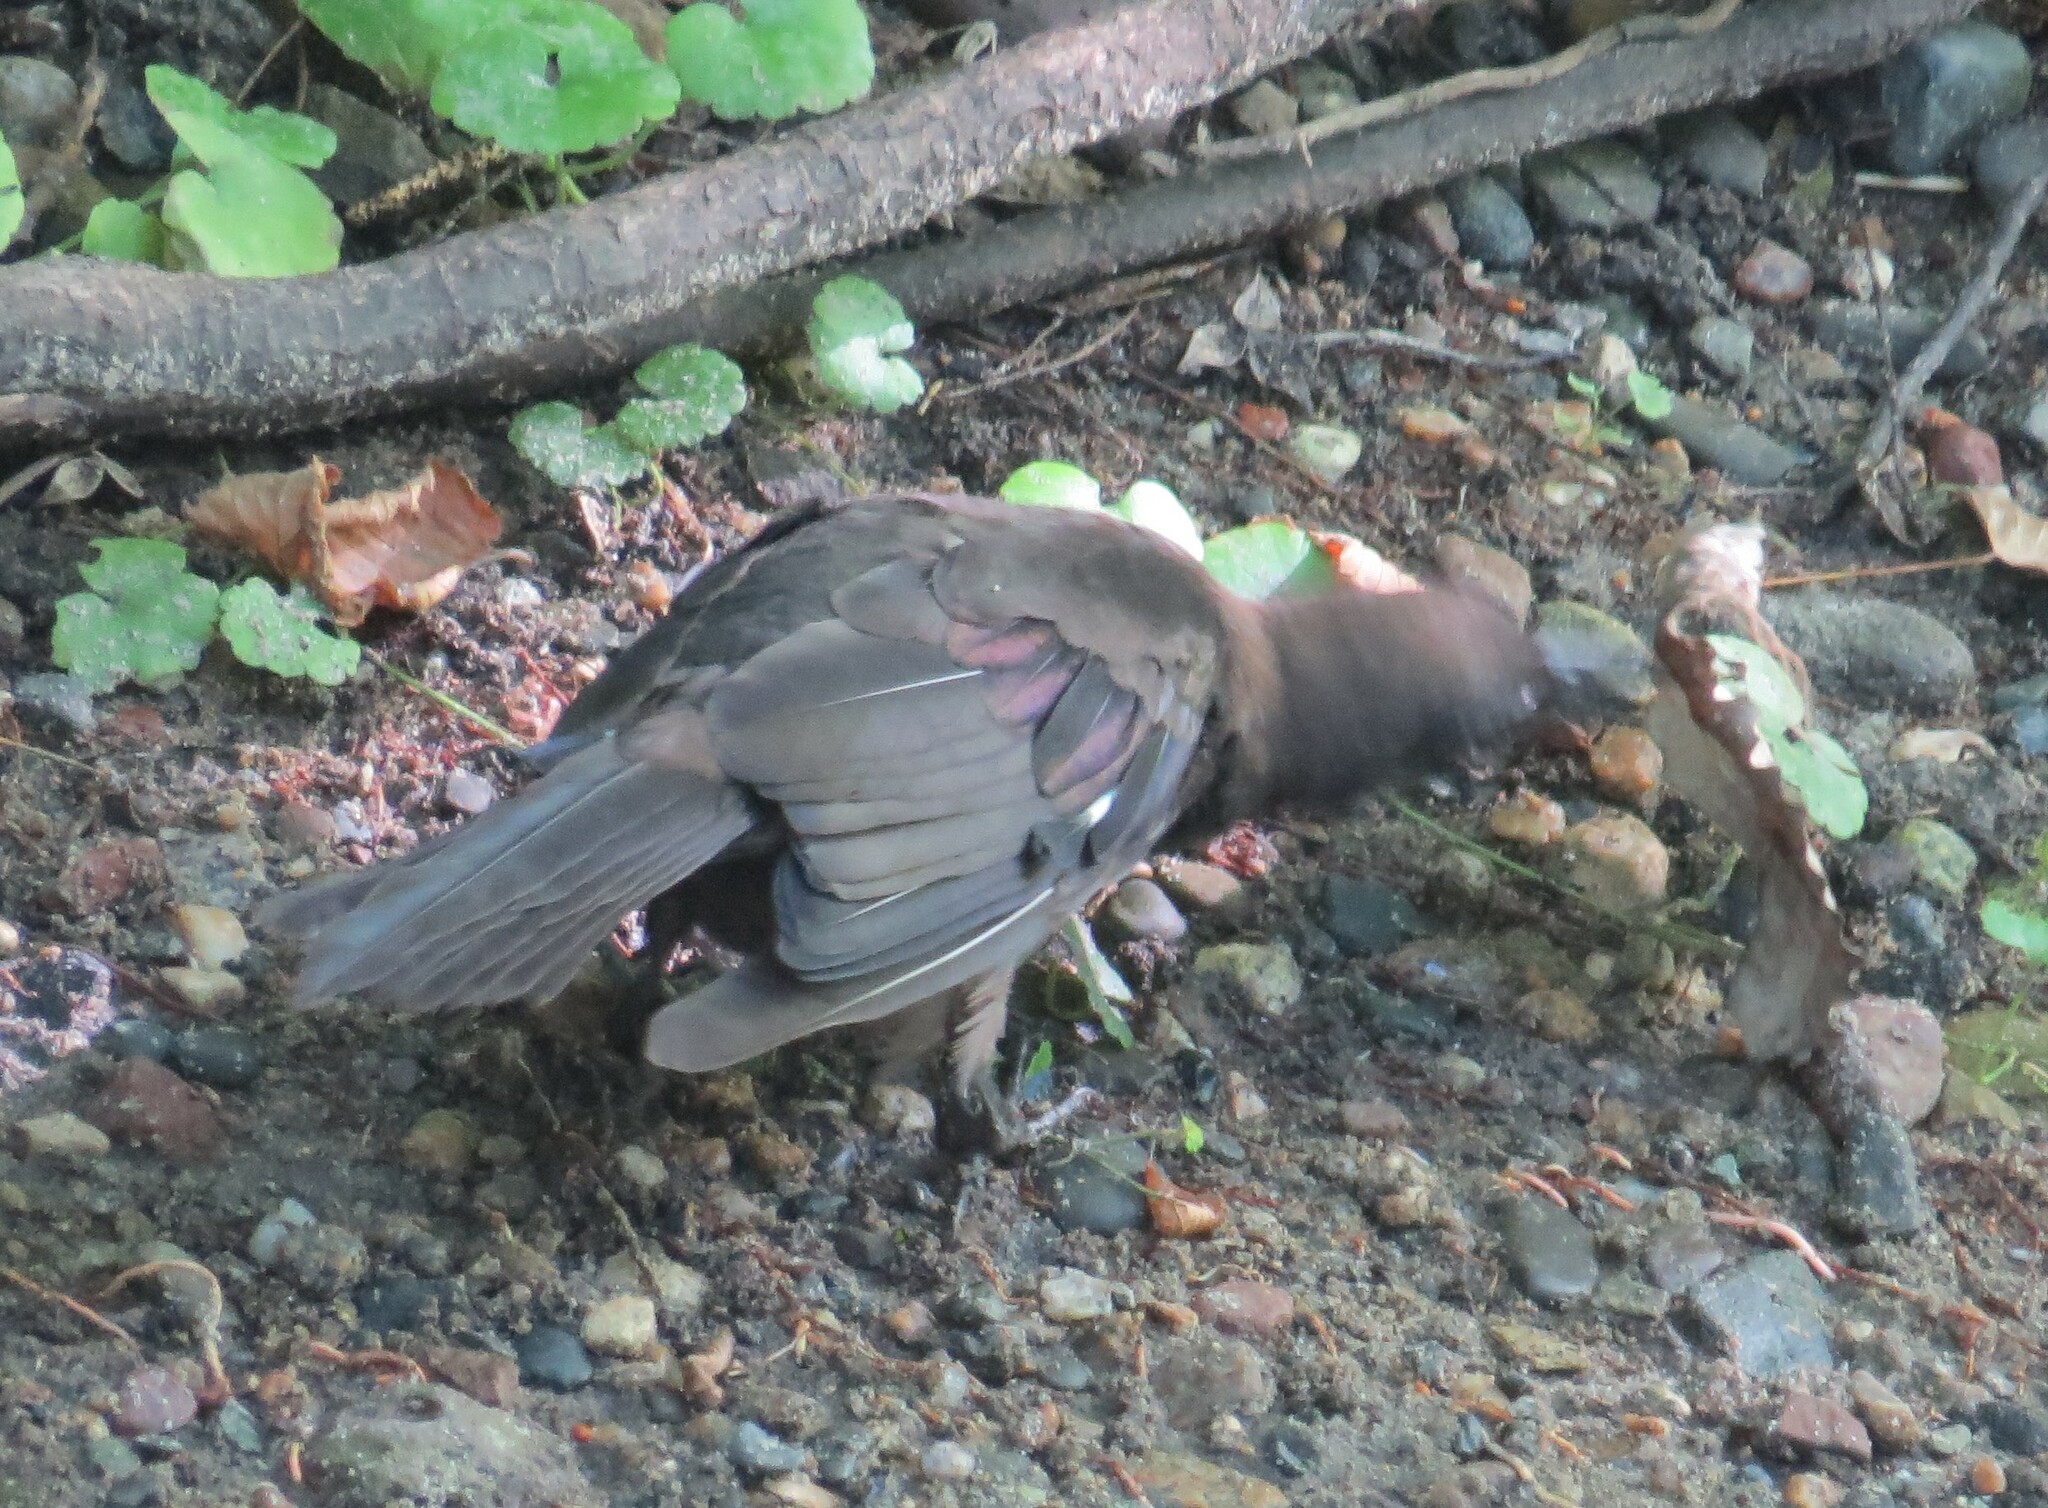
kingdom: Animalia
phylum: Chordata
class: Aves
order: Passeriformes
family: Icteridae
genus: Quiscalus
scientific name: Quiscalus quiscula
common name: Common grackle
